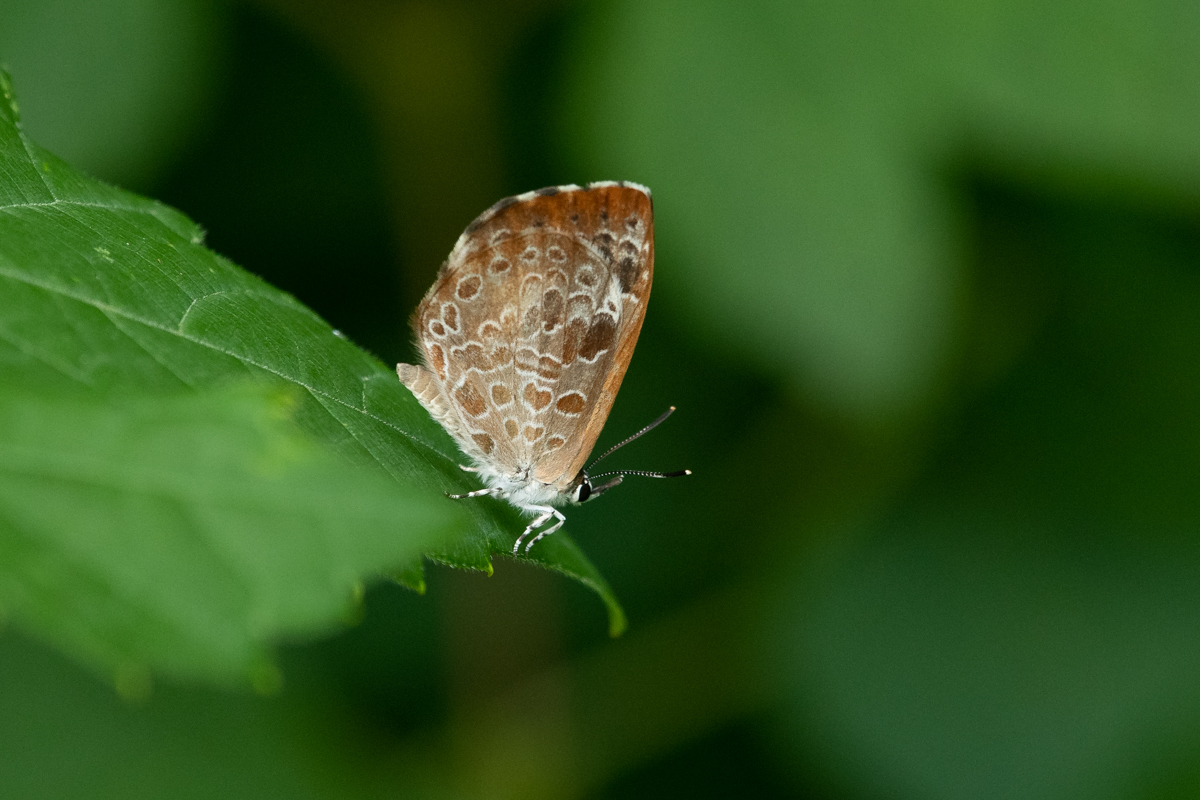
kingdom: Animalia
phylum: Arthropoda
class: Insecta
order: Lepidoptera
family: Lycaenidae
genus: Feniseca
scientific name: Feniseca tarquinius
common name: Harvester
